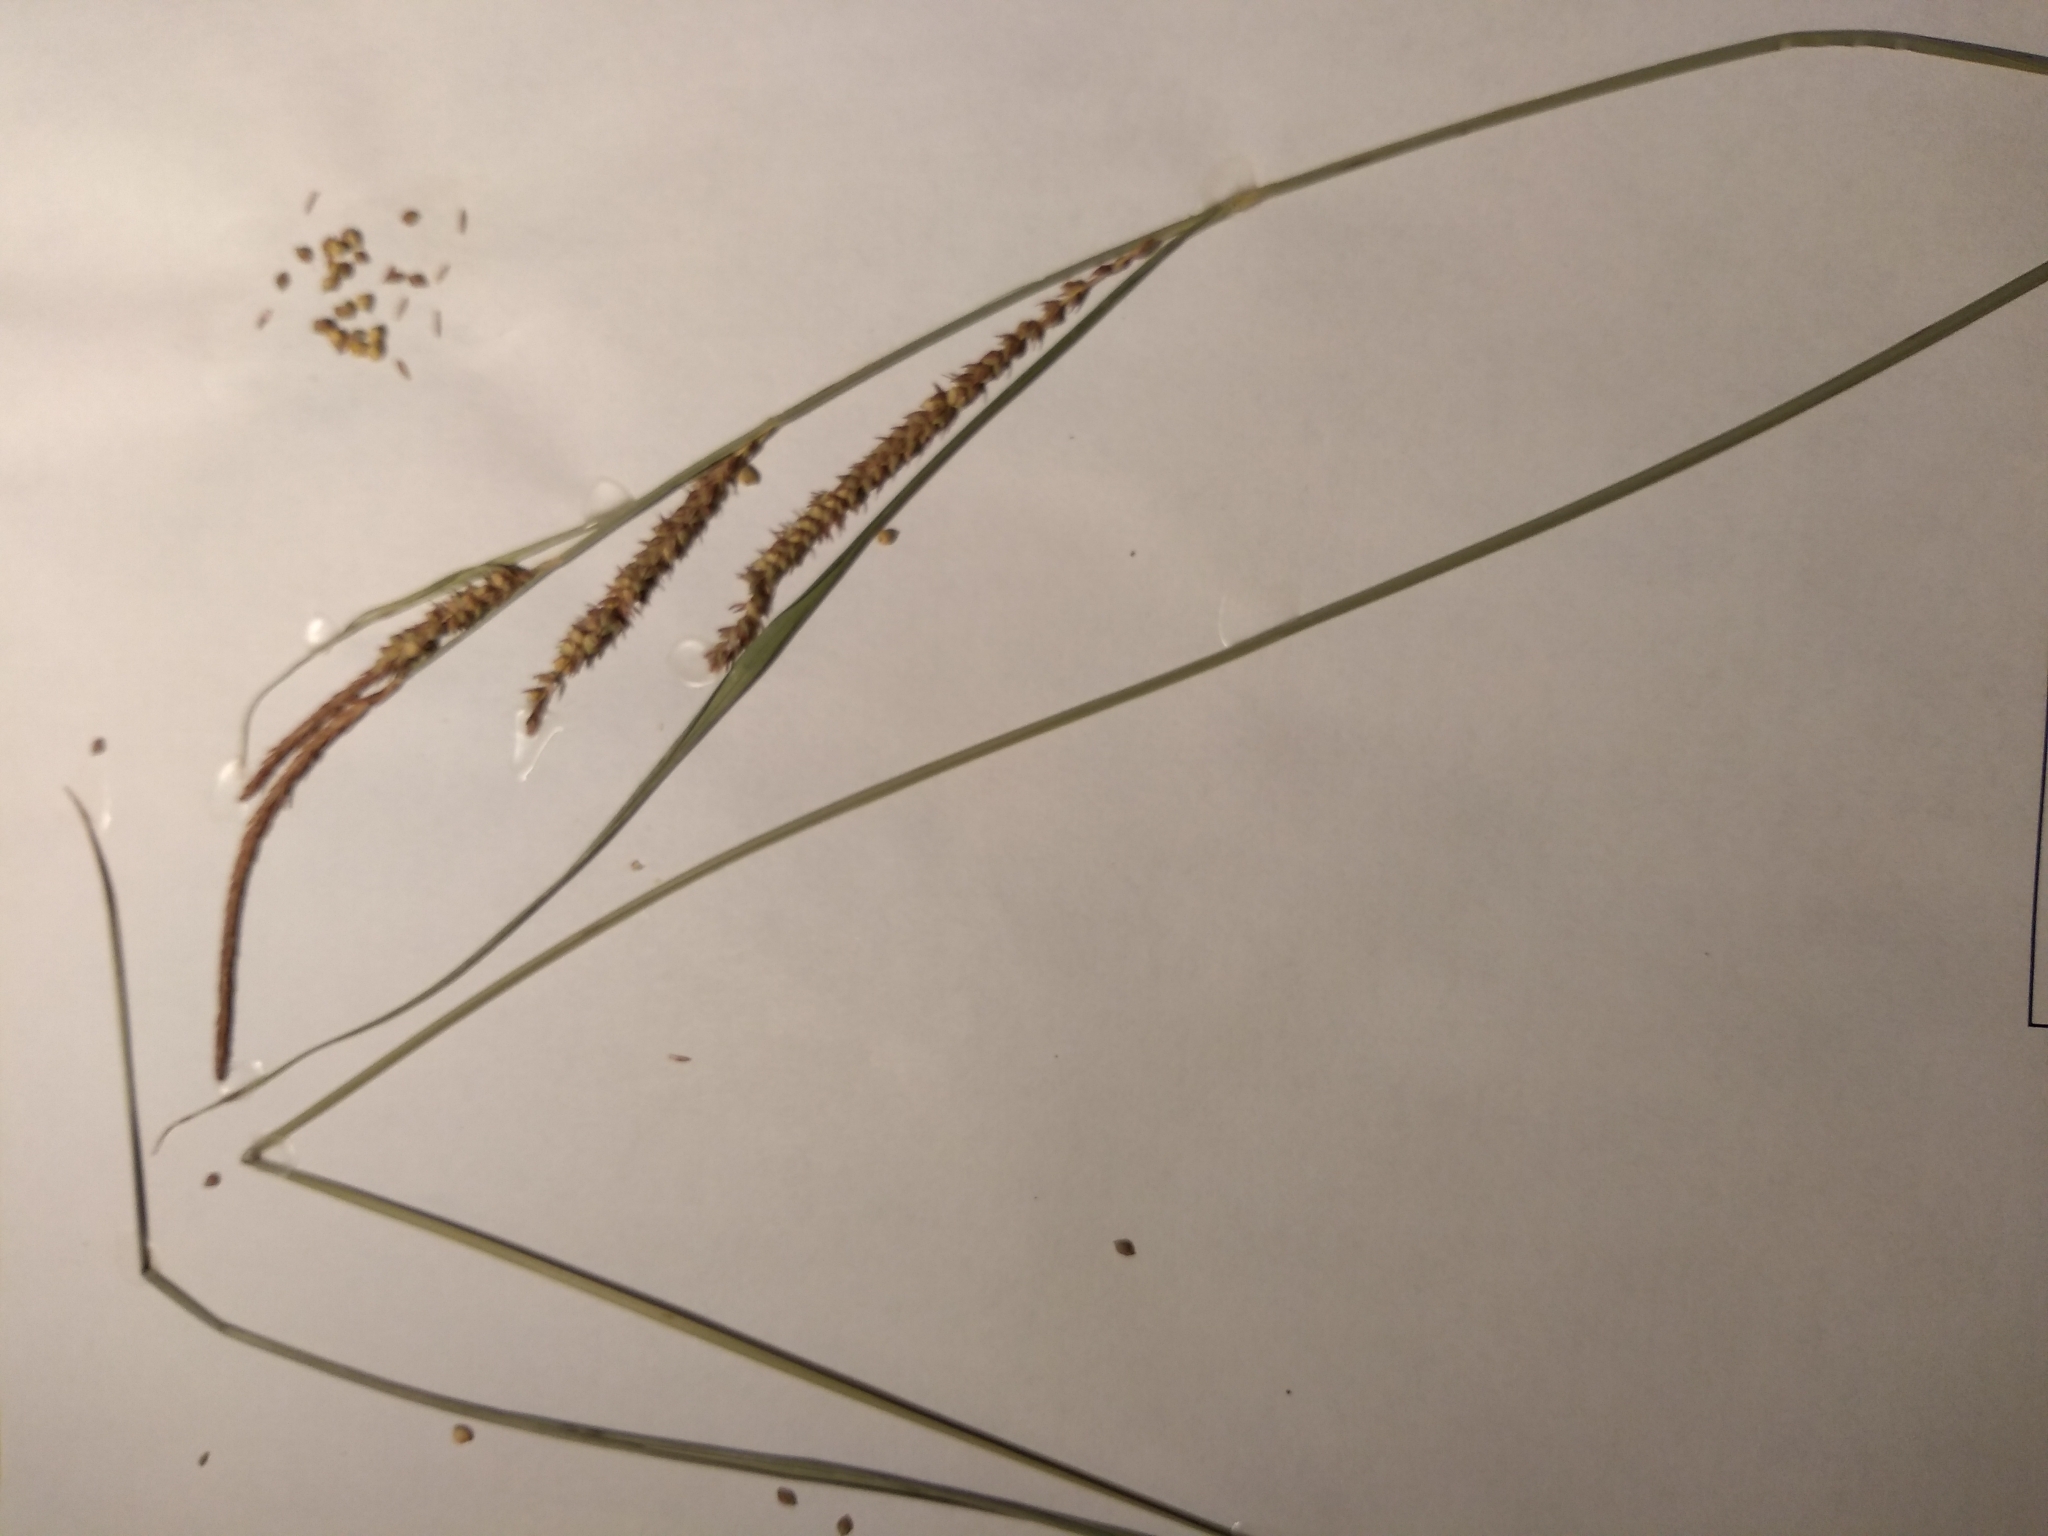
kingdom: Plantae
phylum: Tracheophyta
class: Liliopsida
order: Poales
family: Cyperaceae
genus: Carex
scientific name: Carex stricta
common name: Hummock sedge
